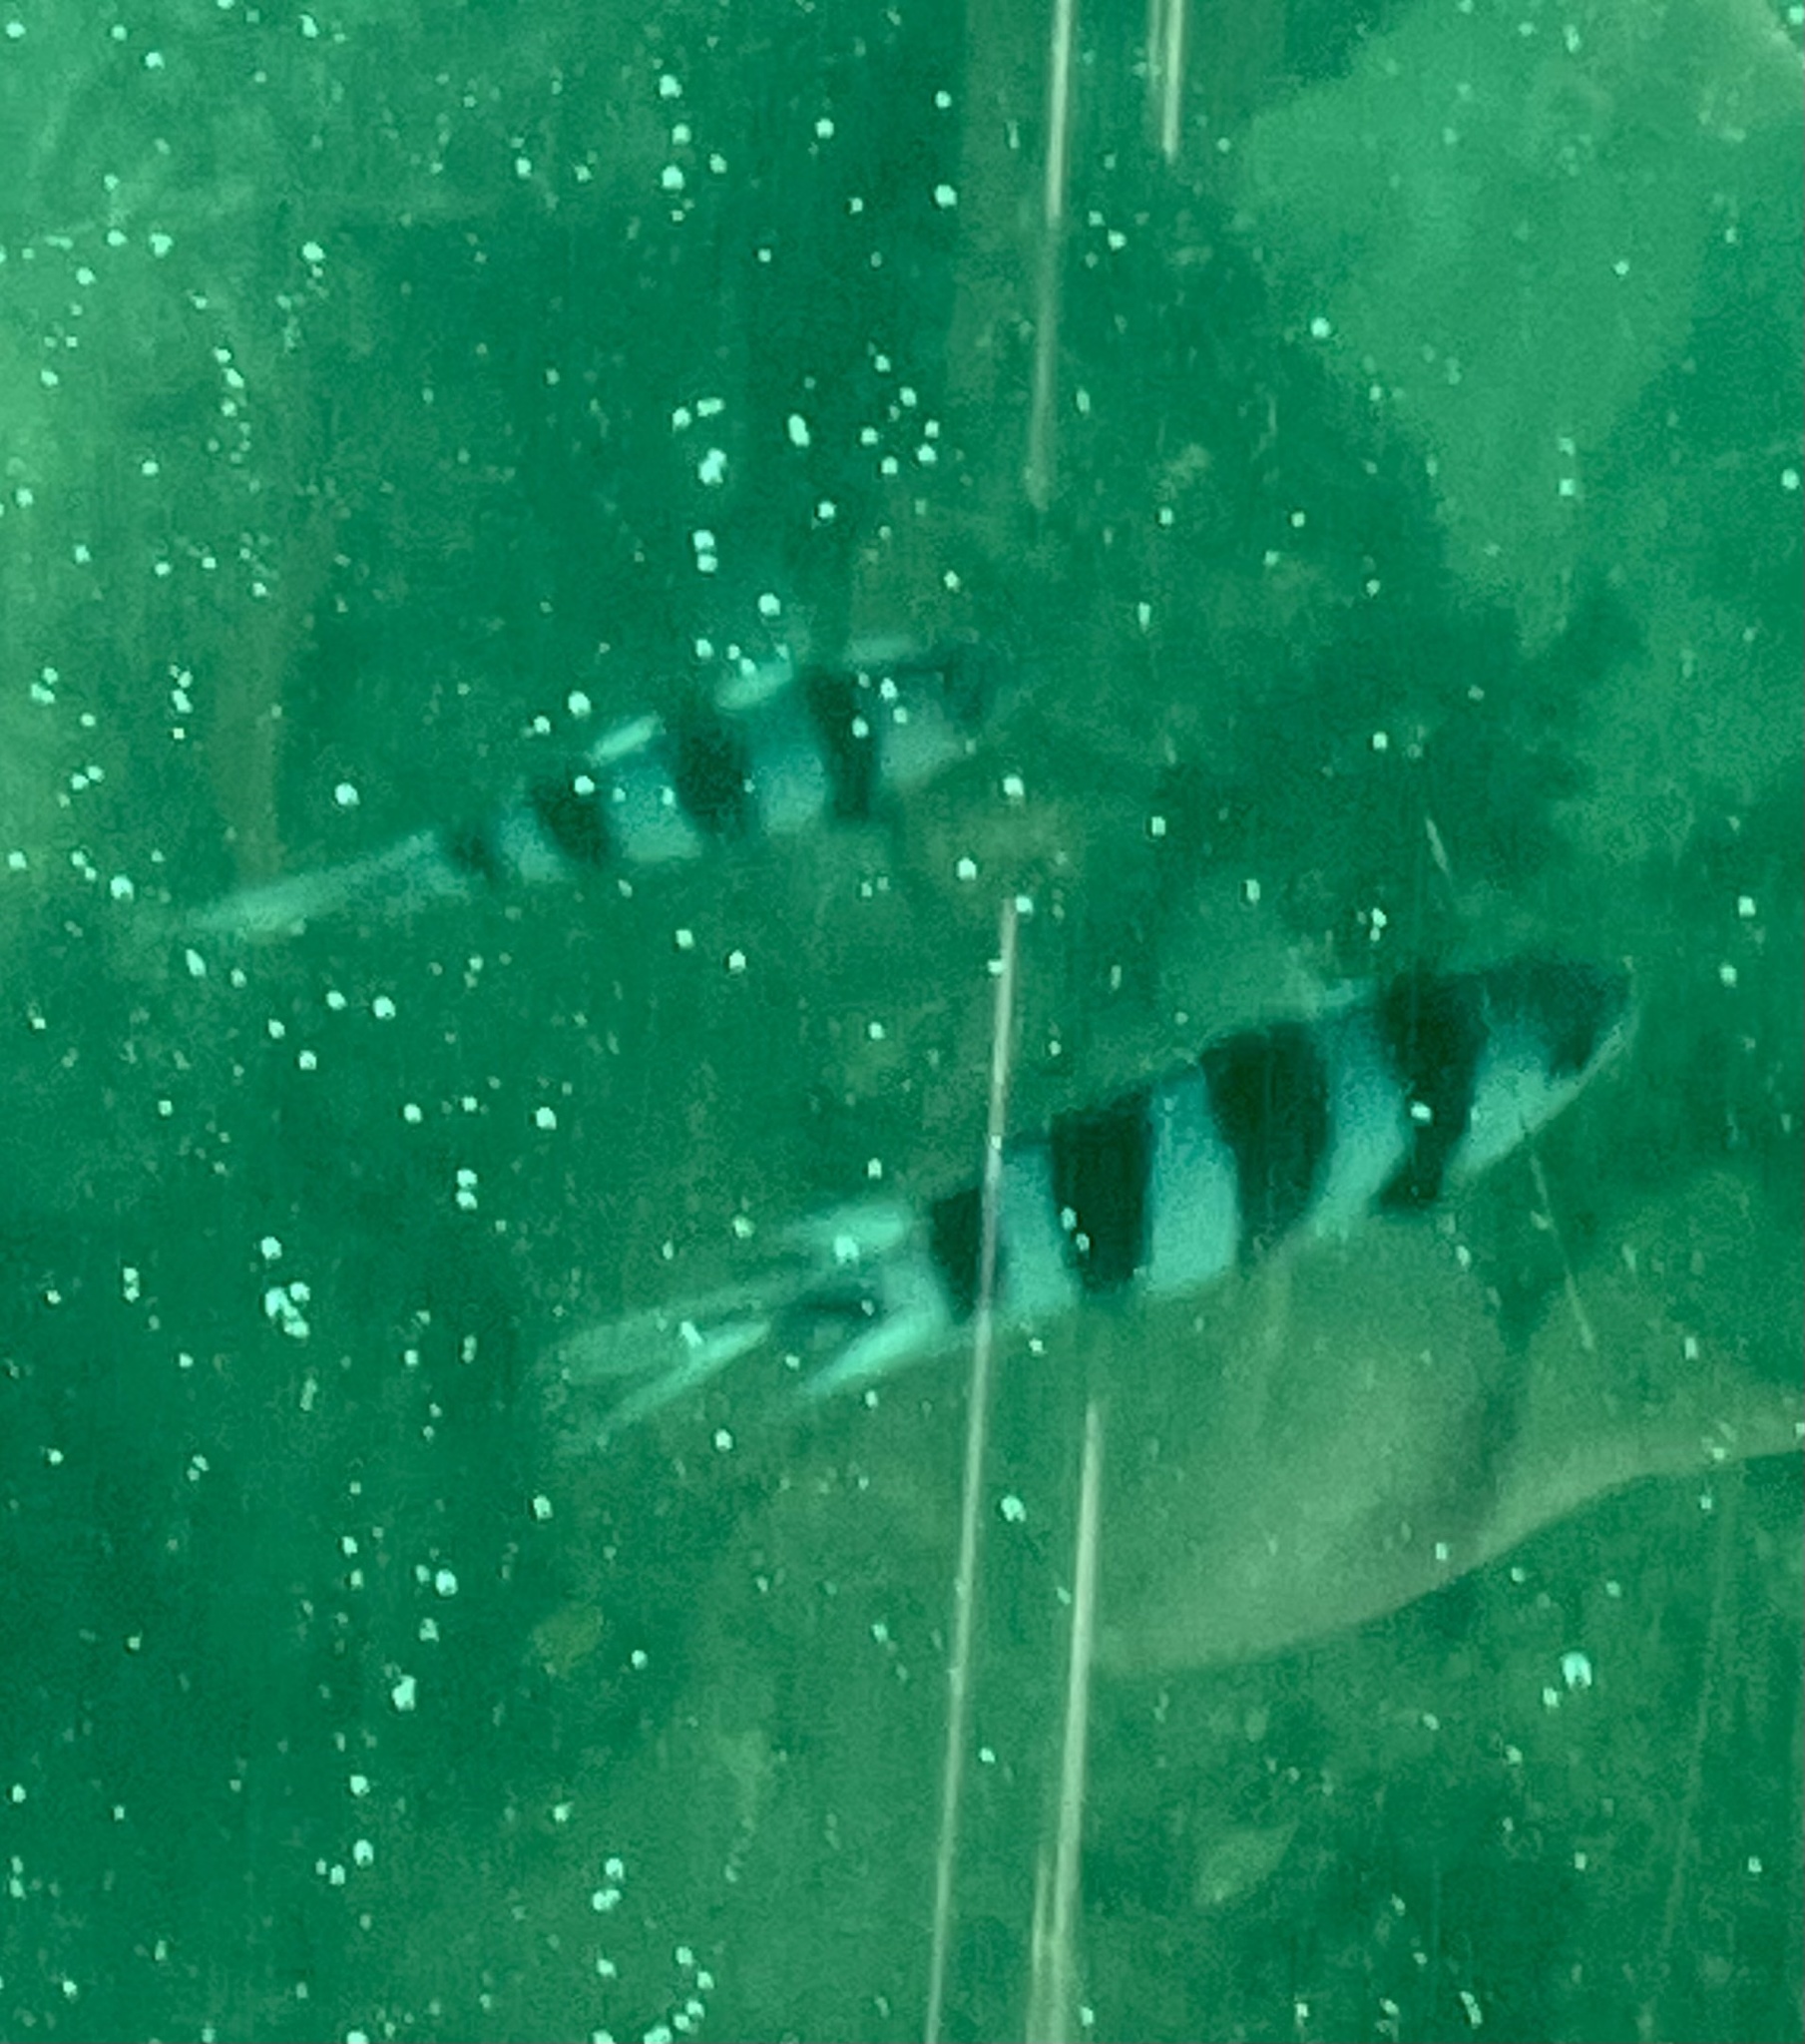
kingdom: Animalia
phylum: Chordata
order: Perciformes
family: Pomacentridae
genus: Abudefduf
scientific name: Abudefduf sexfasciatus
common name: Scissortail sergeant
